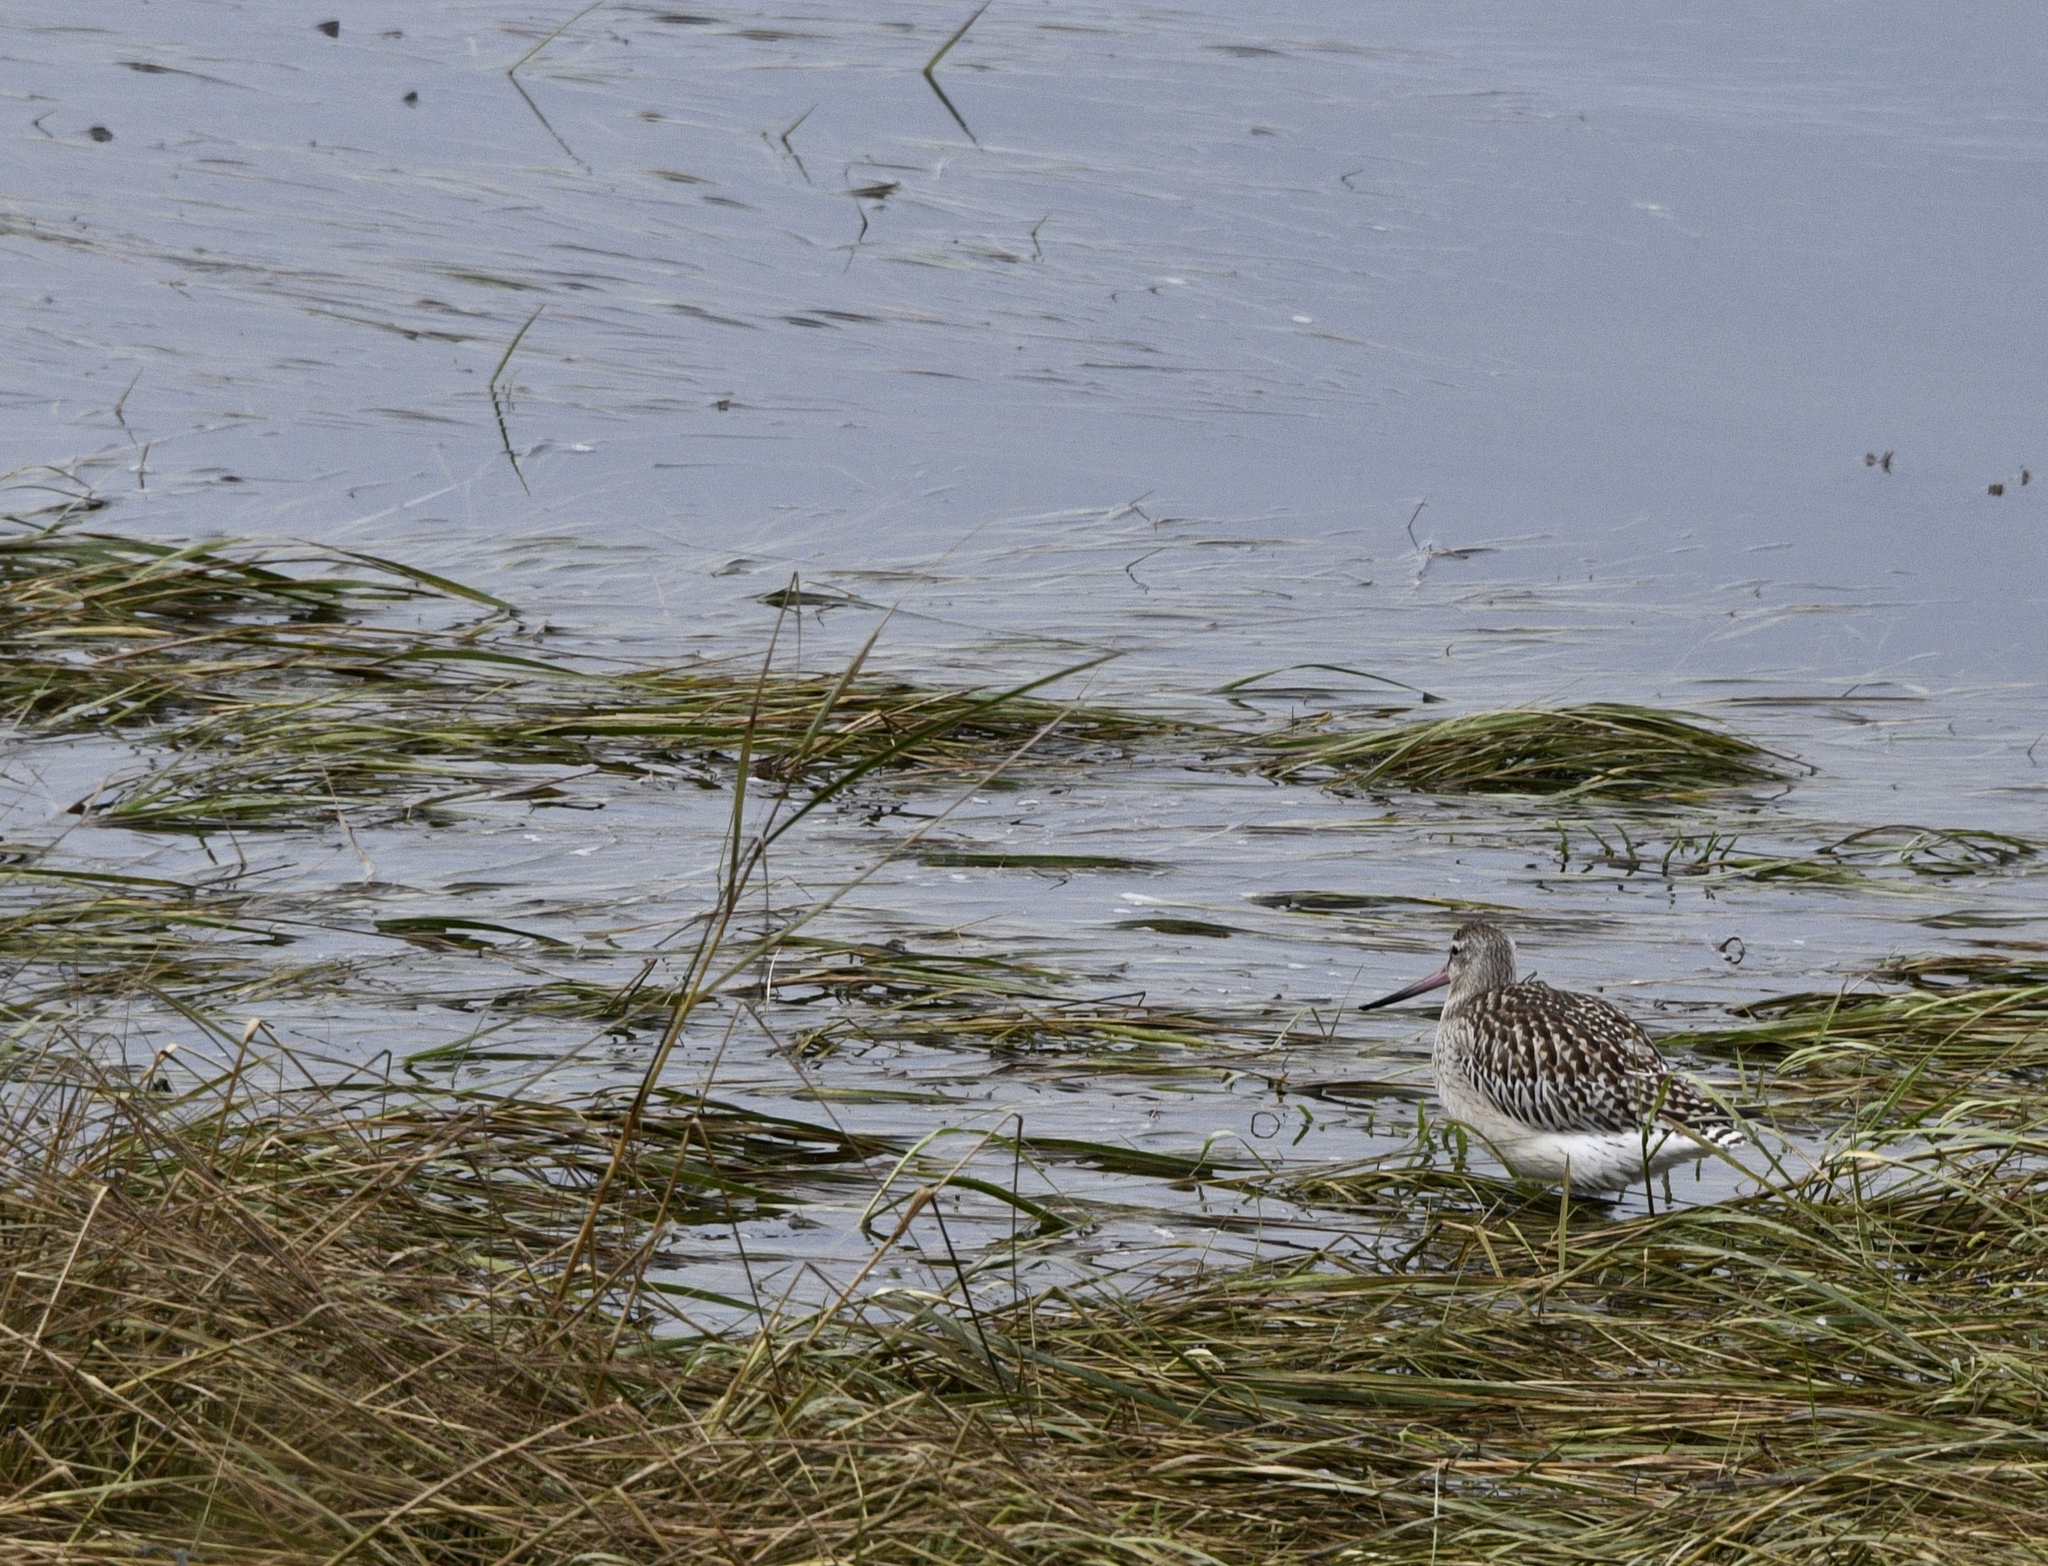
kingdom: Animalia
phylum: Chordata
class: Aves
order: Charadriiformes
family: Scolopacidae
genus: Limosa
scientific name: Limosa lapponica
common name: Bar-tailed godwit
